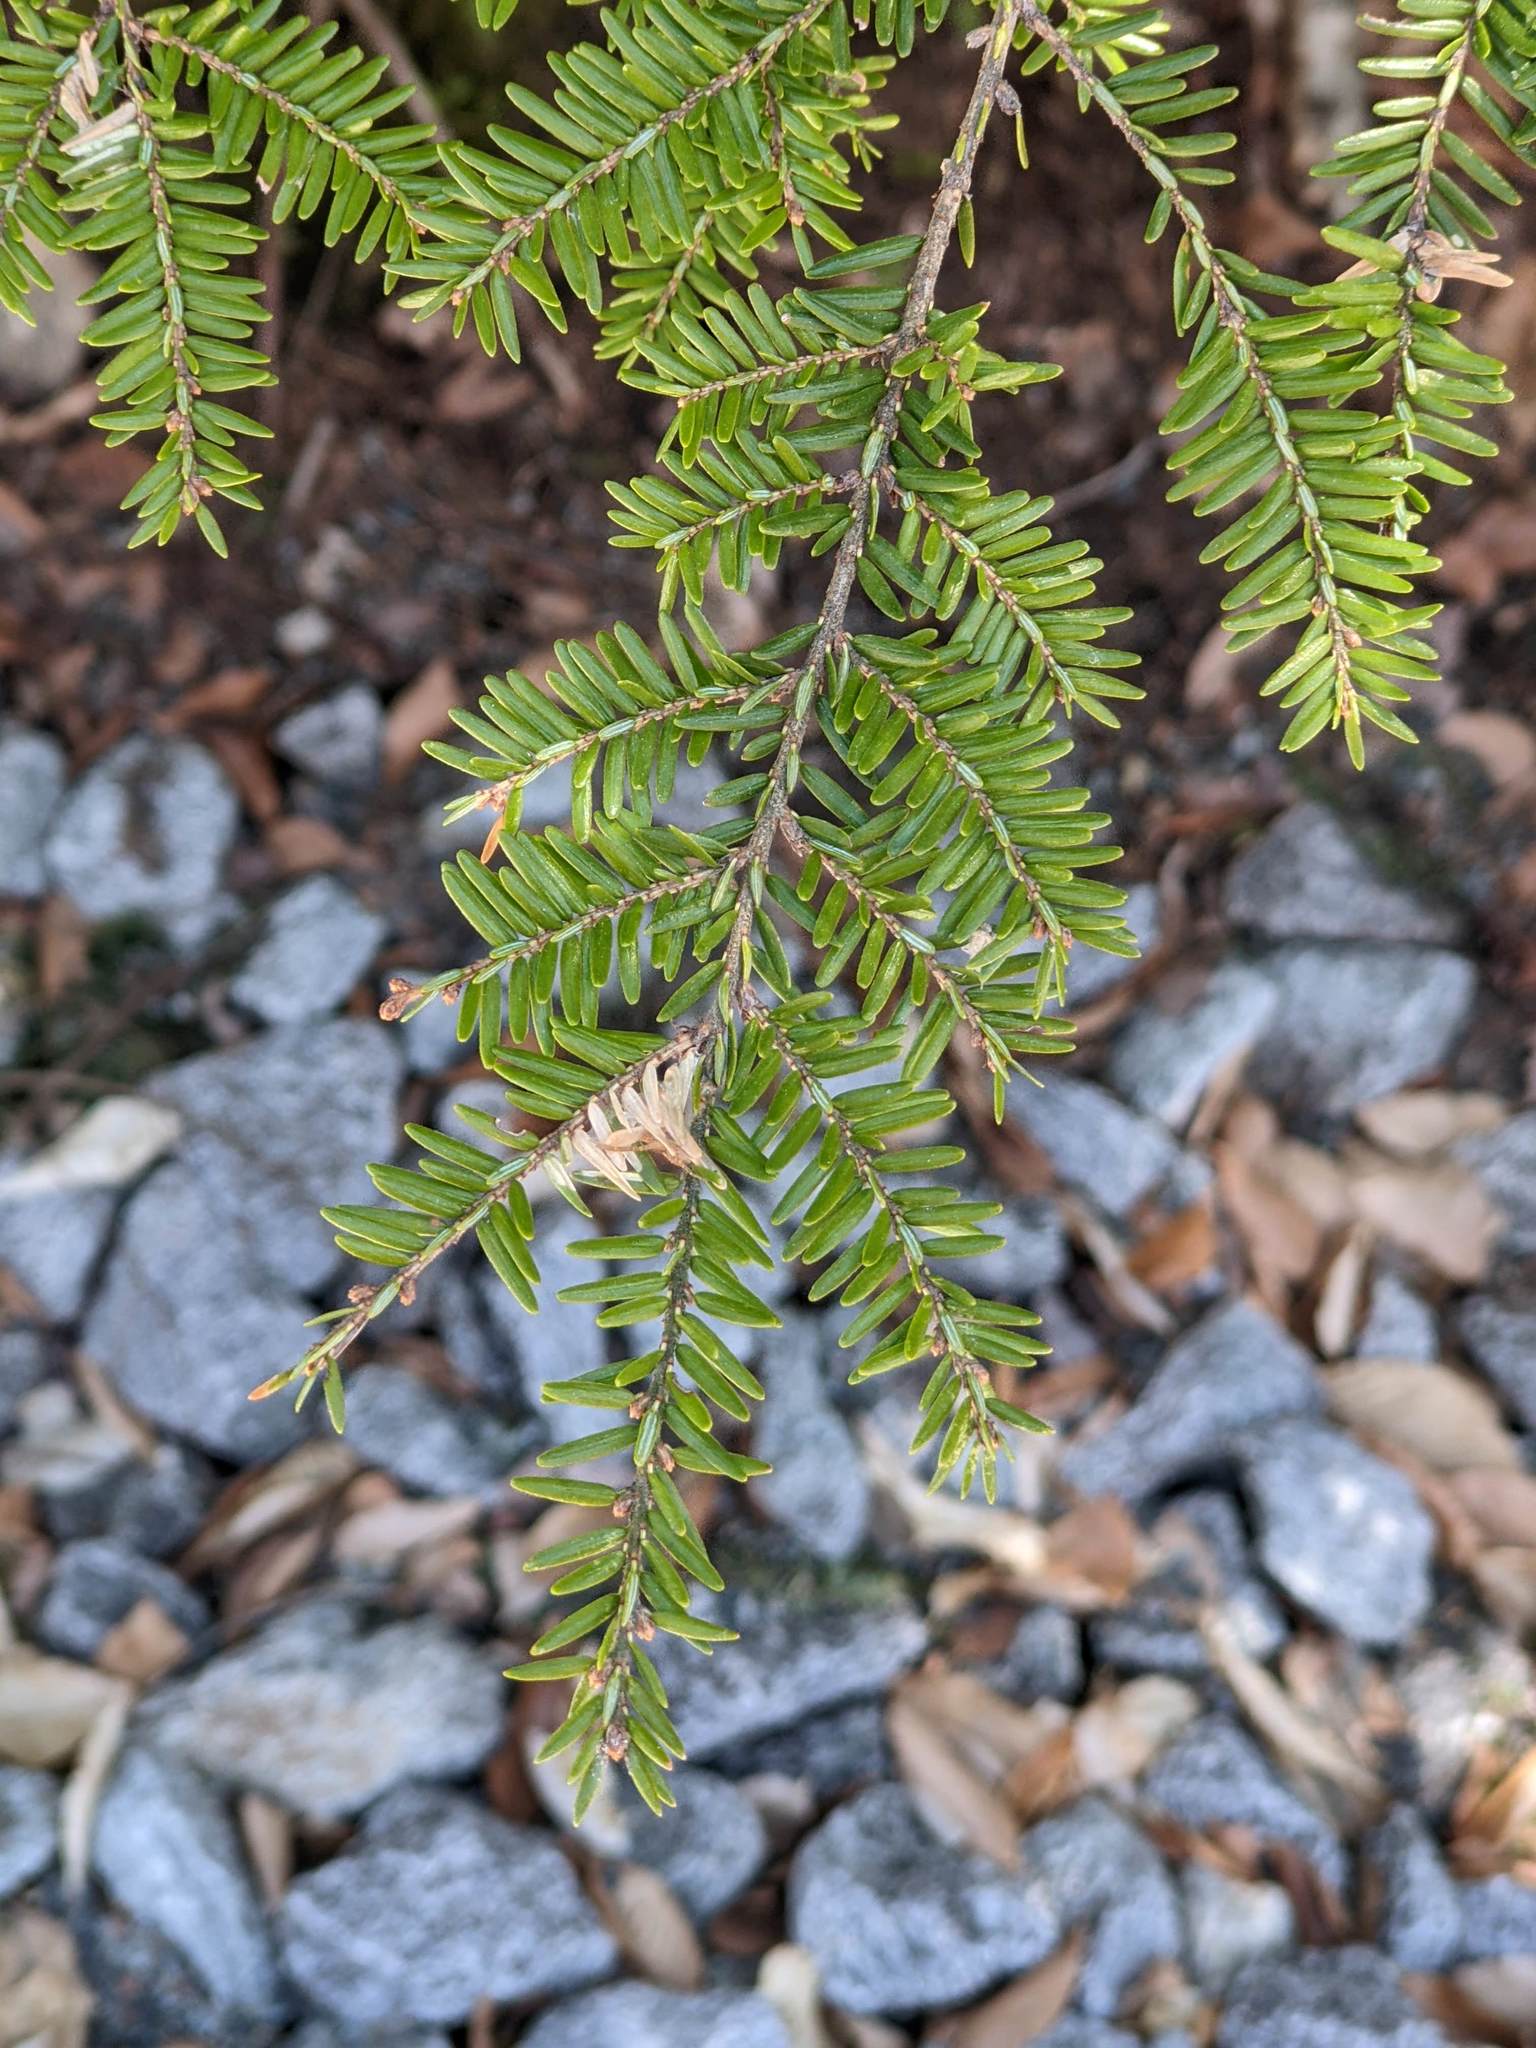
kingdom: Plantae
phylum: Tracheophyta
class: Pinopsida
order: Pinales
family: Pinaceae
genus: Tsuga
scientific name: Tsuga canadensis
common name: Eastern hemlock
